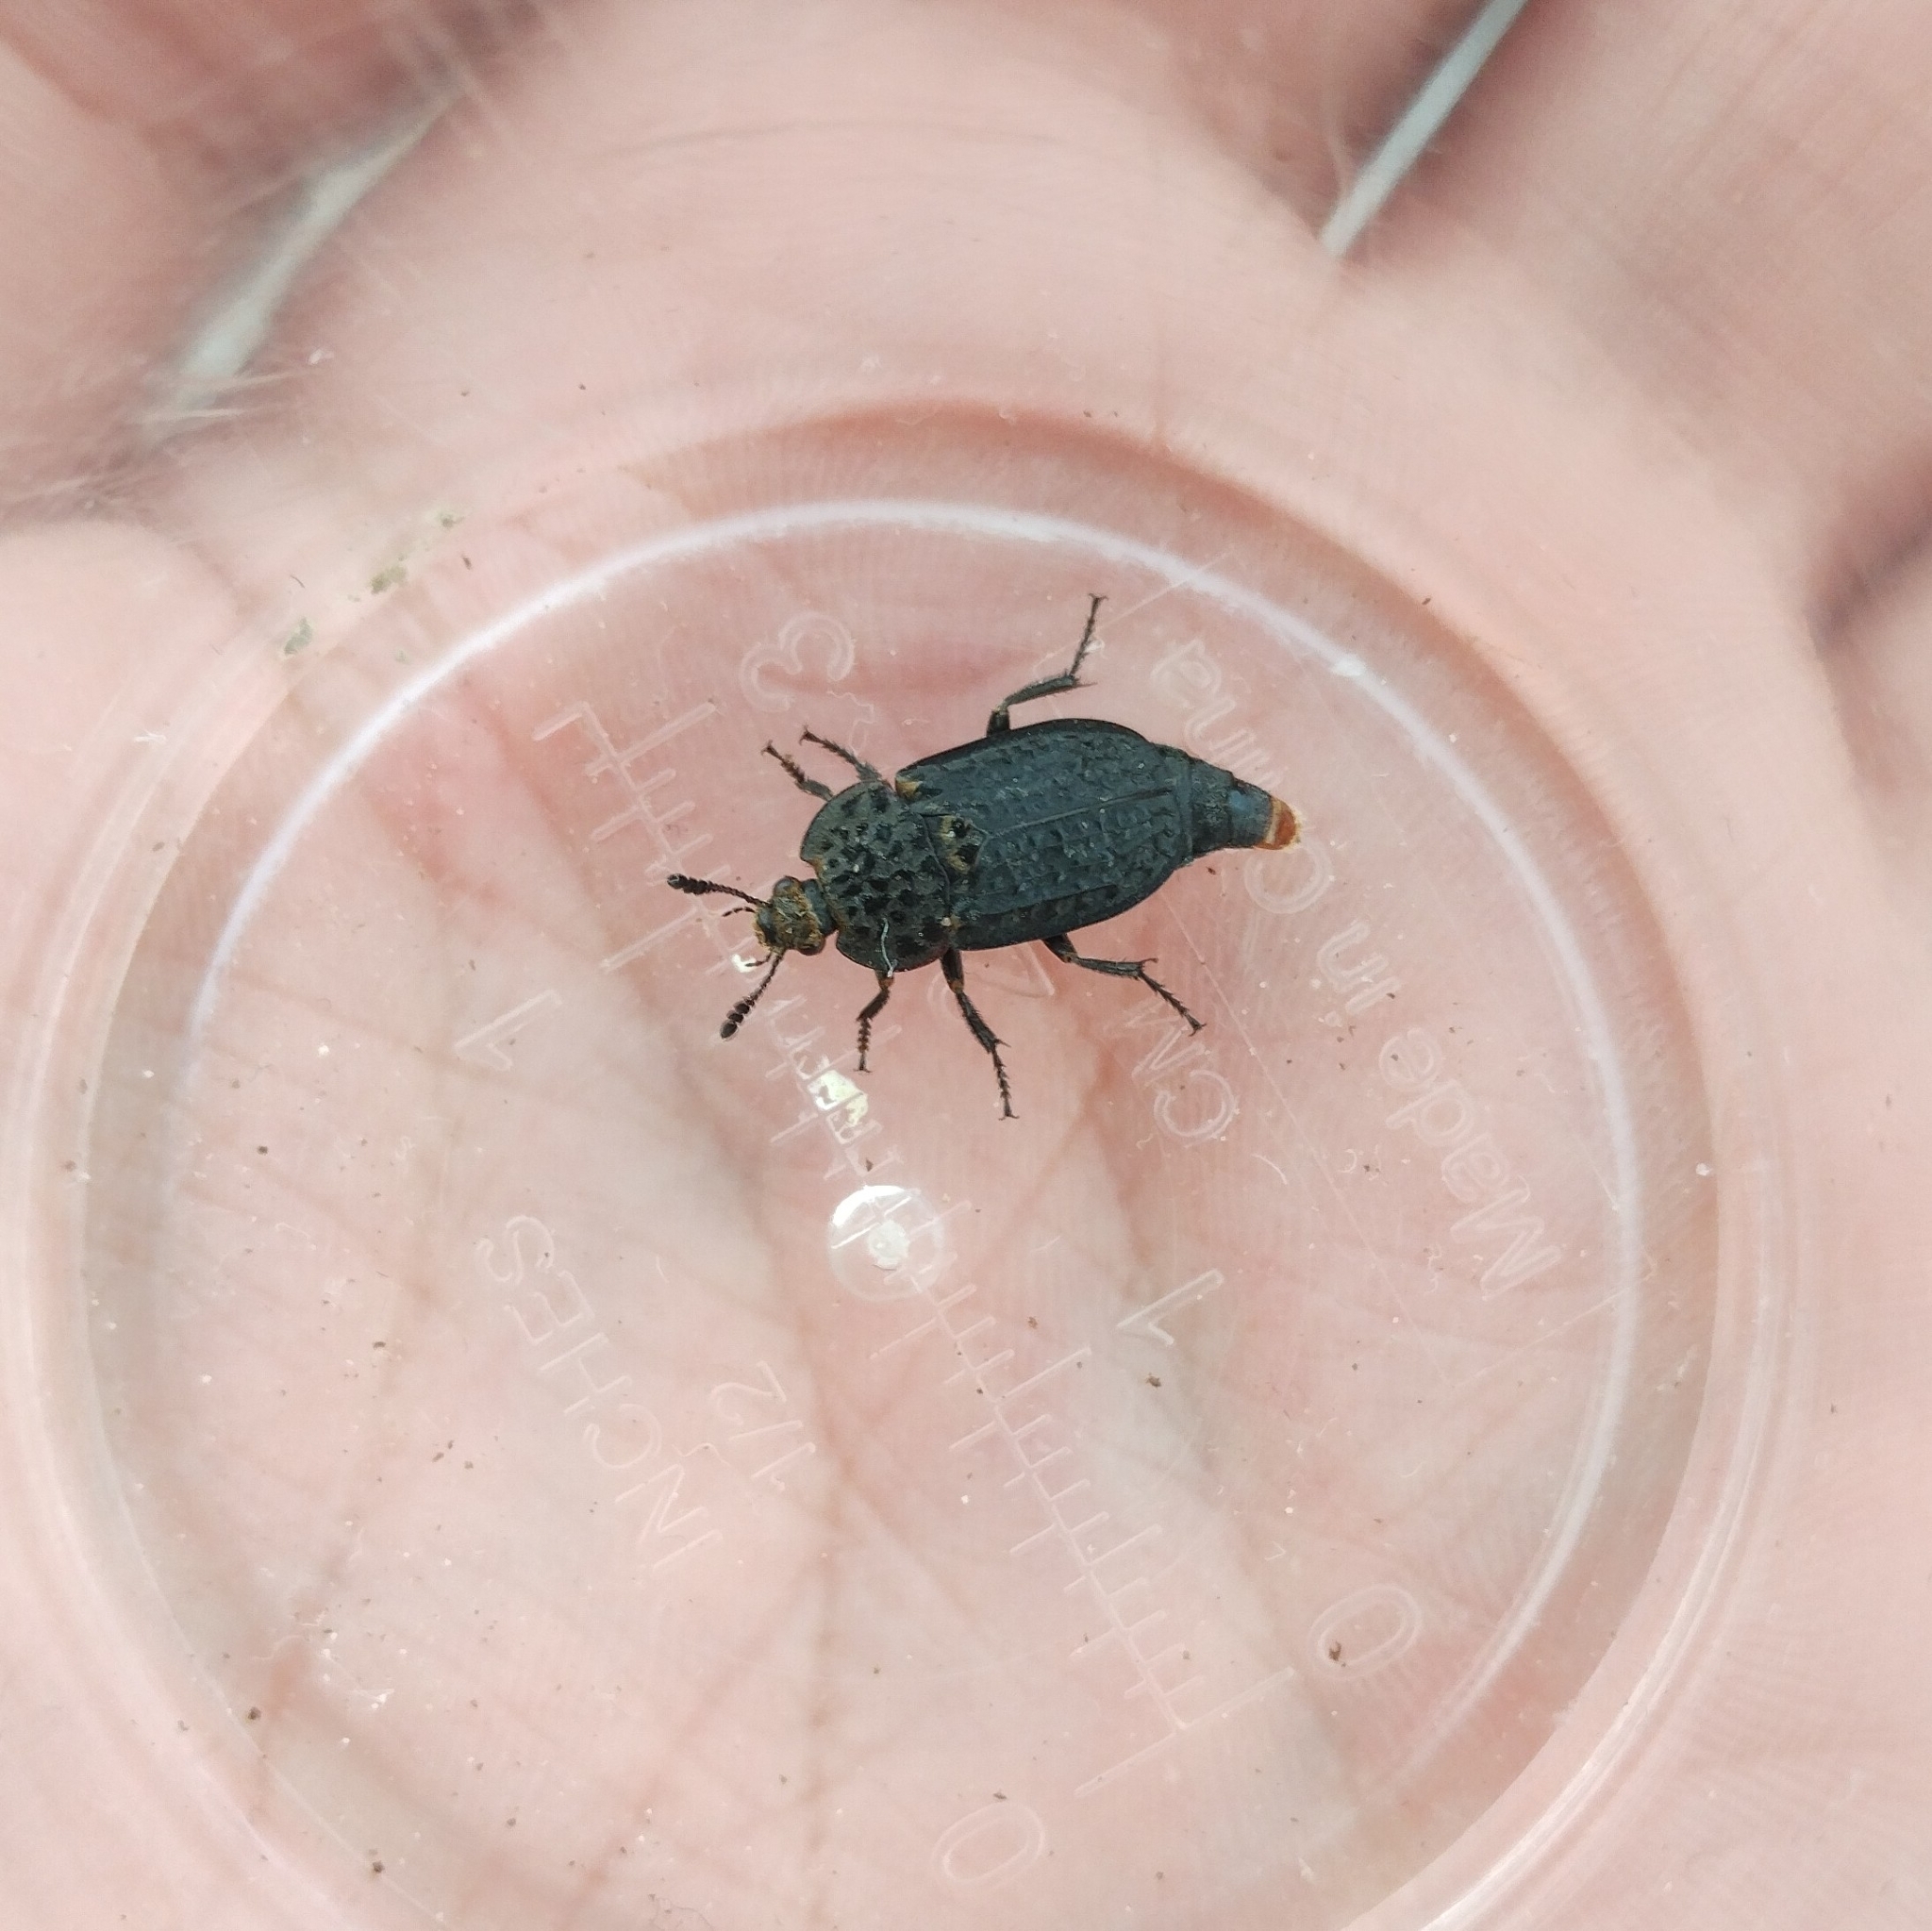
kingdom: Animalia
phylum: Arthropoda
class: Insecta
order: Coleoptera
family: Staphylinidae
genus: Thanatophilus
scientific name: Thanatophilus rugosus
